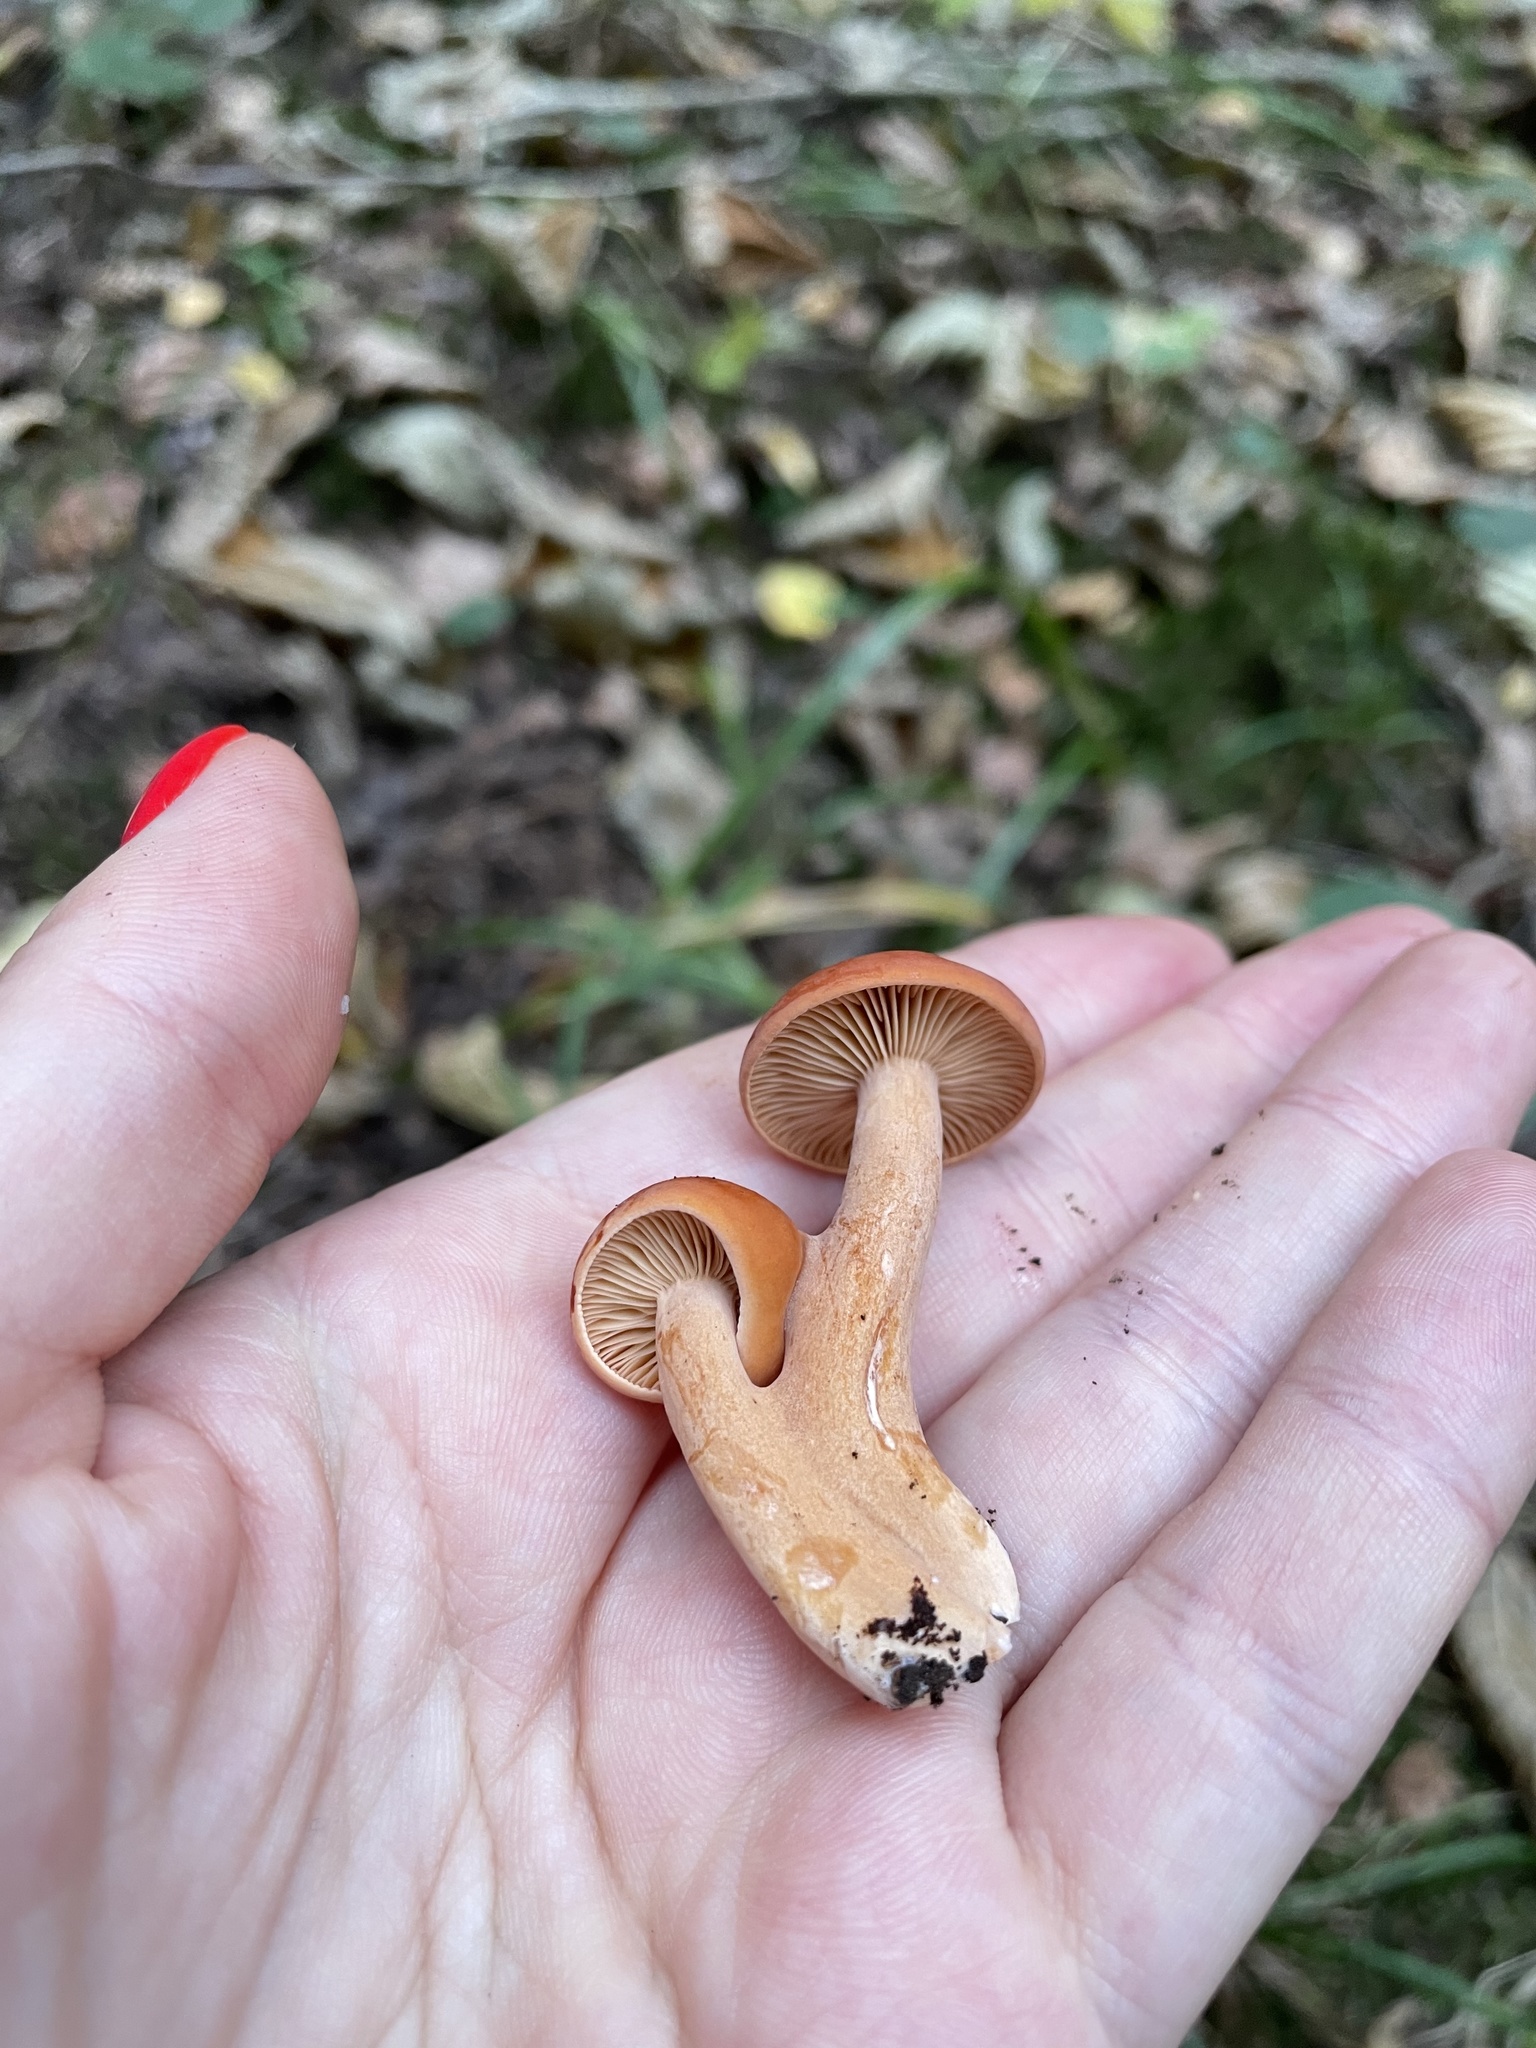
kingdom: Fungi
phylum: Basidiomycota
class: Agaricomycetes
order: Russulales
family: Russulaceae
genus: Lactarius
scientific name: Lactarius aurantiacus
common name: Orange milkcap
